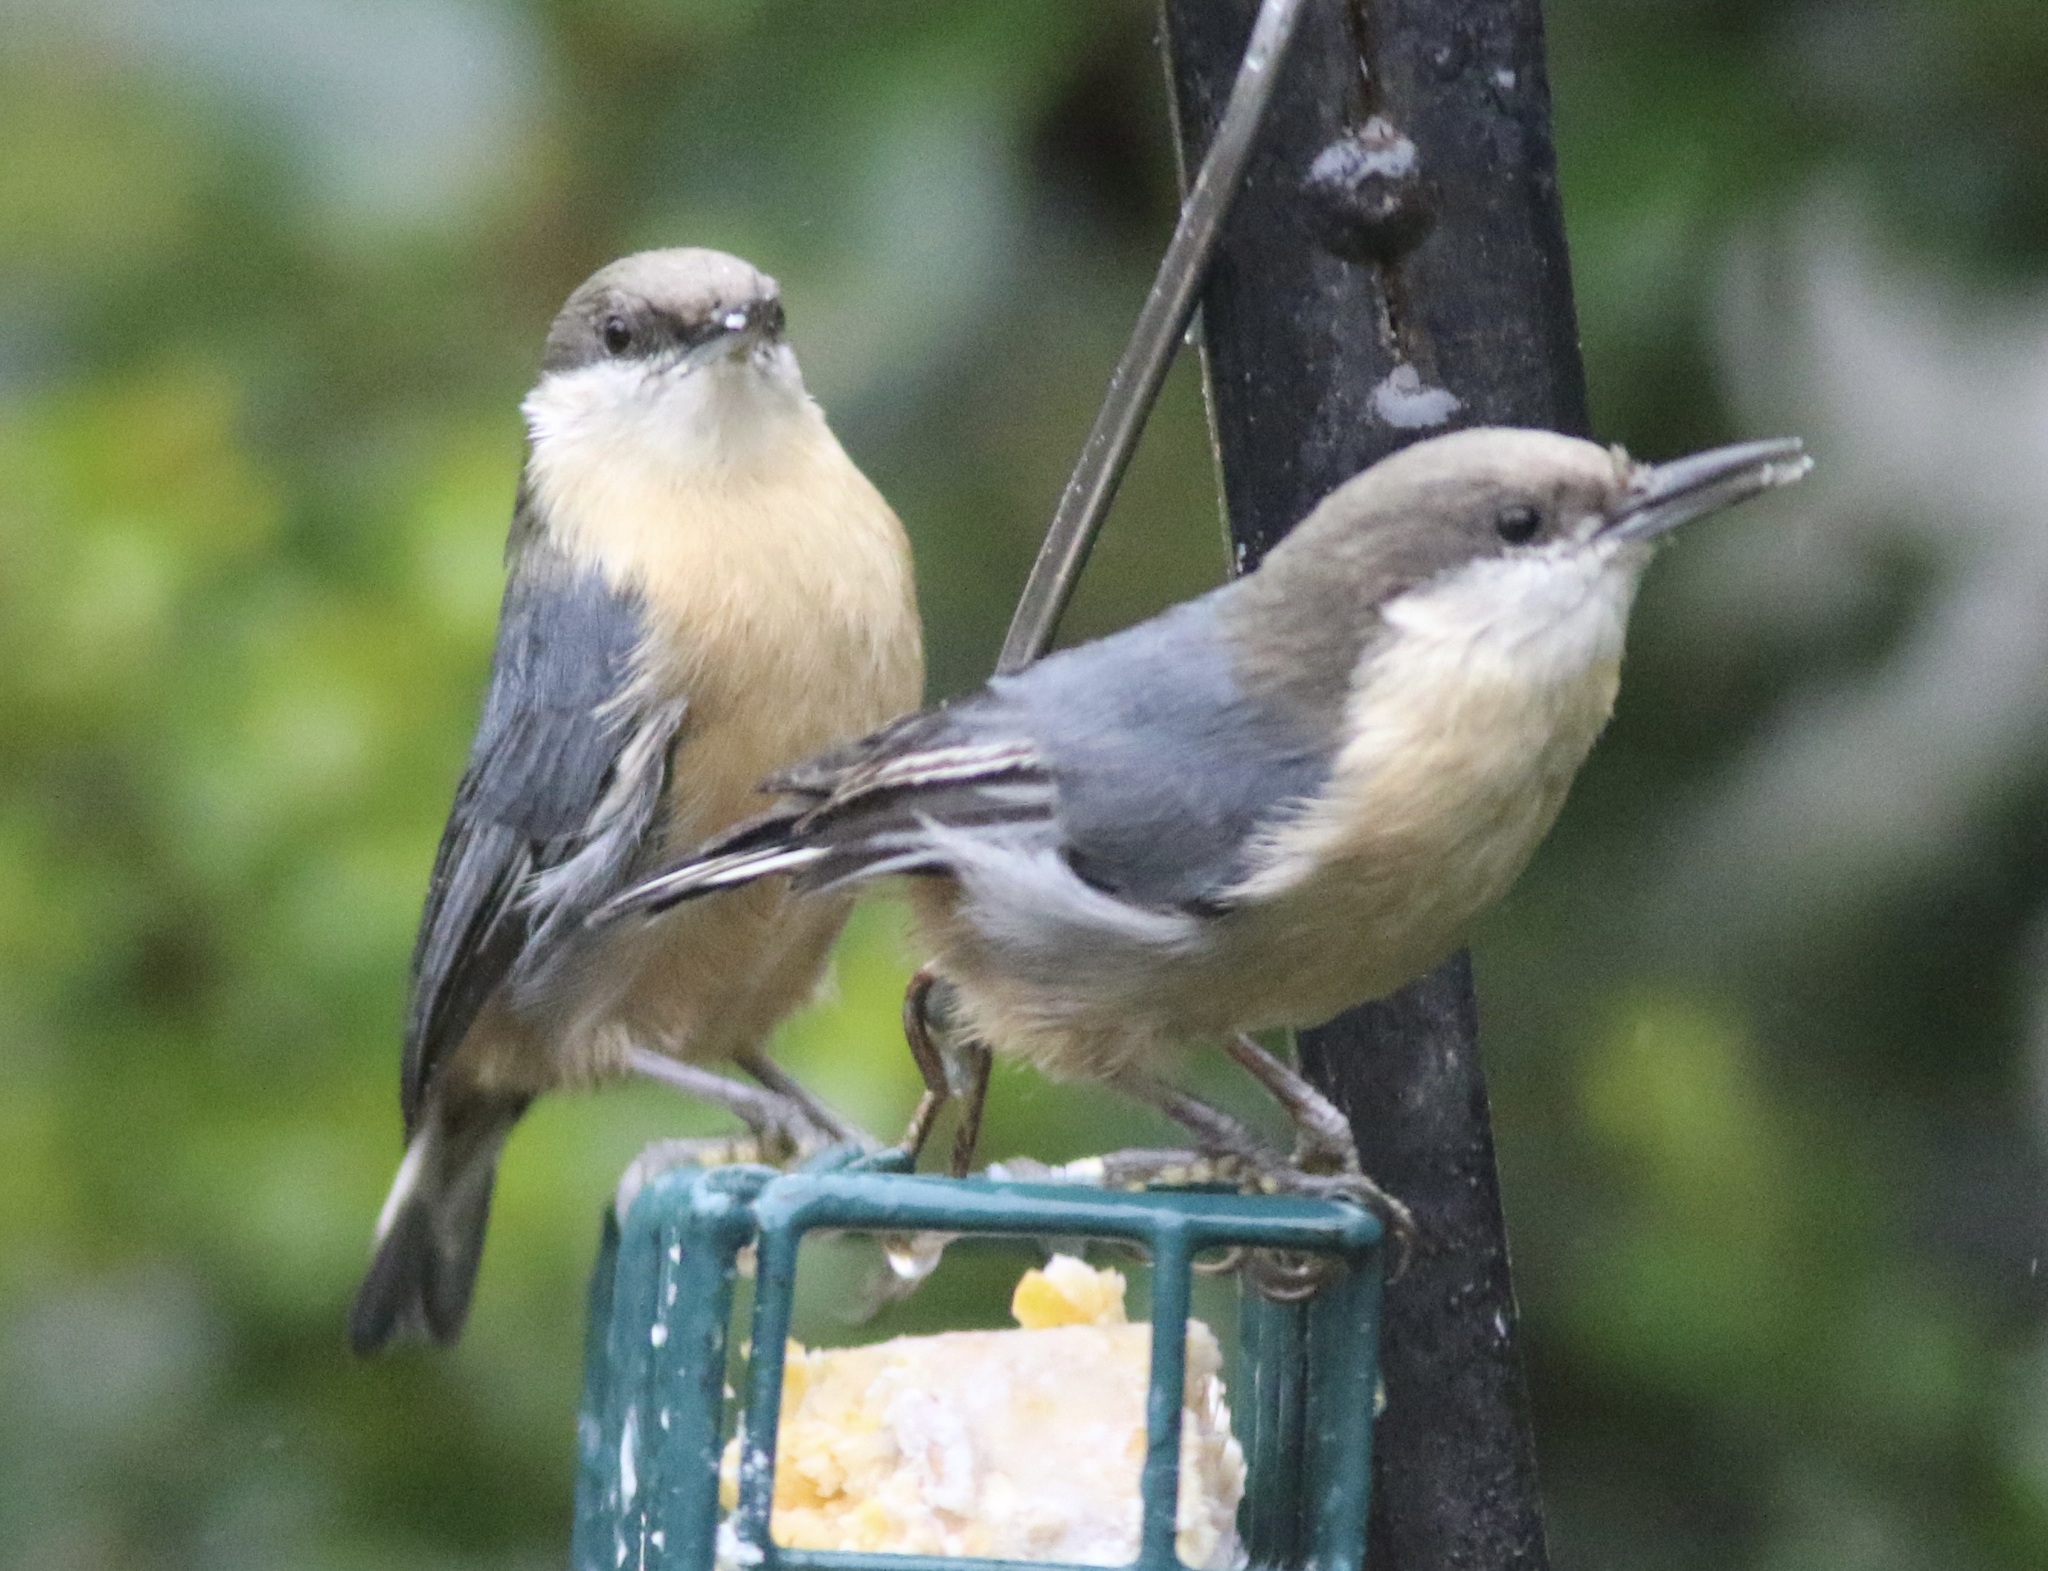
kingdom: Animalia
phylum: Chordata
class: Aves
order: Passeriformes
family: Sittidae
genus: Sitta
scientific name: Sitta pygmaea
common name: Pygmy nuthatch
